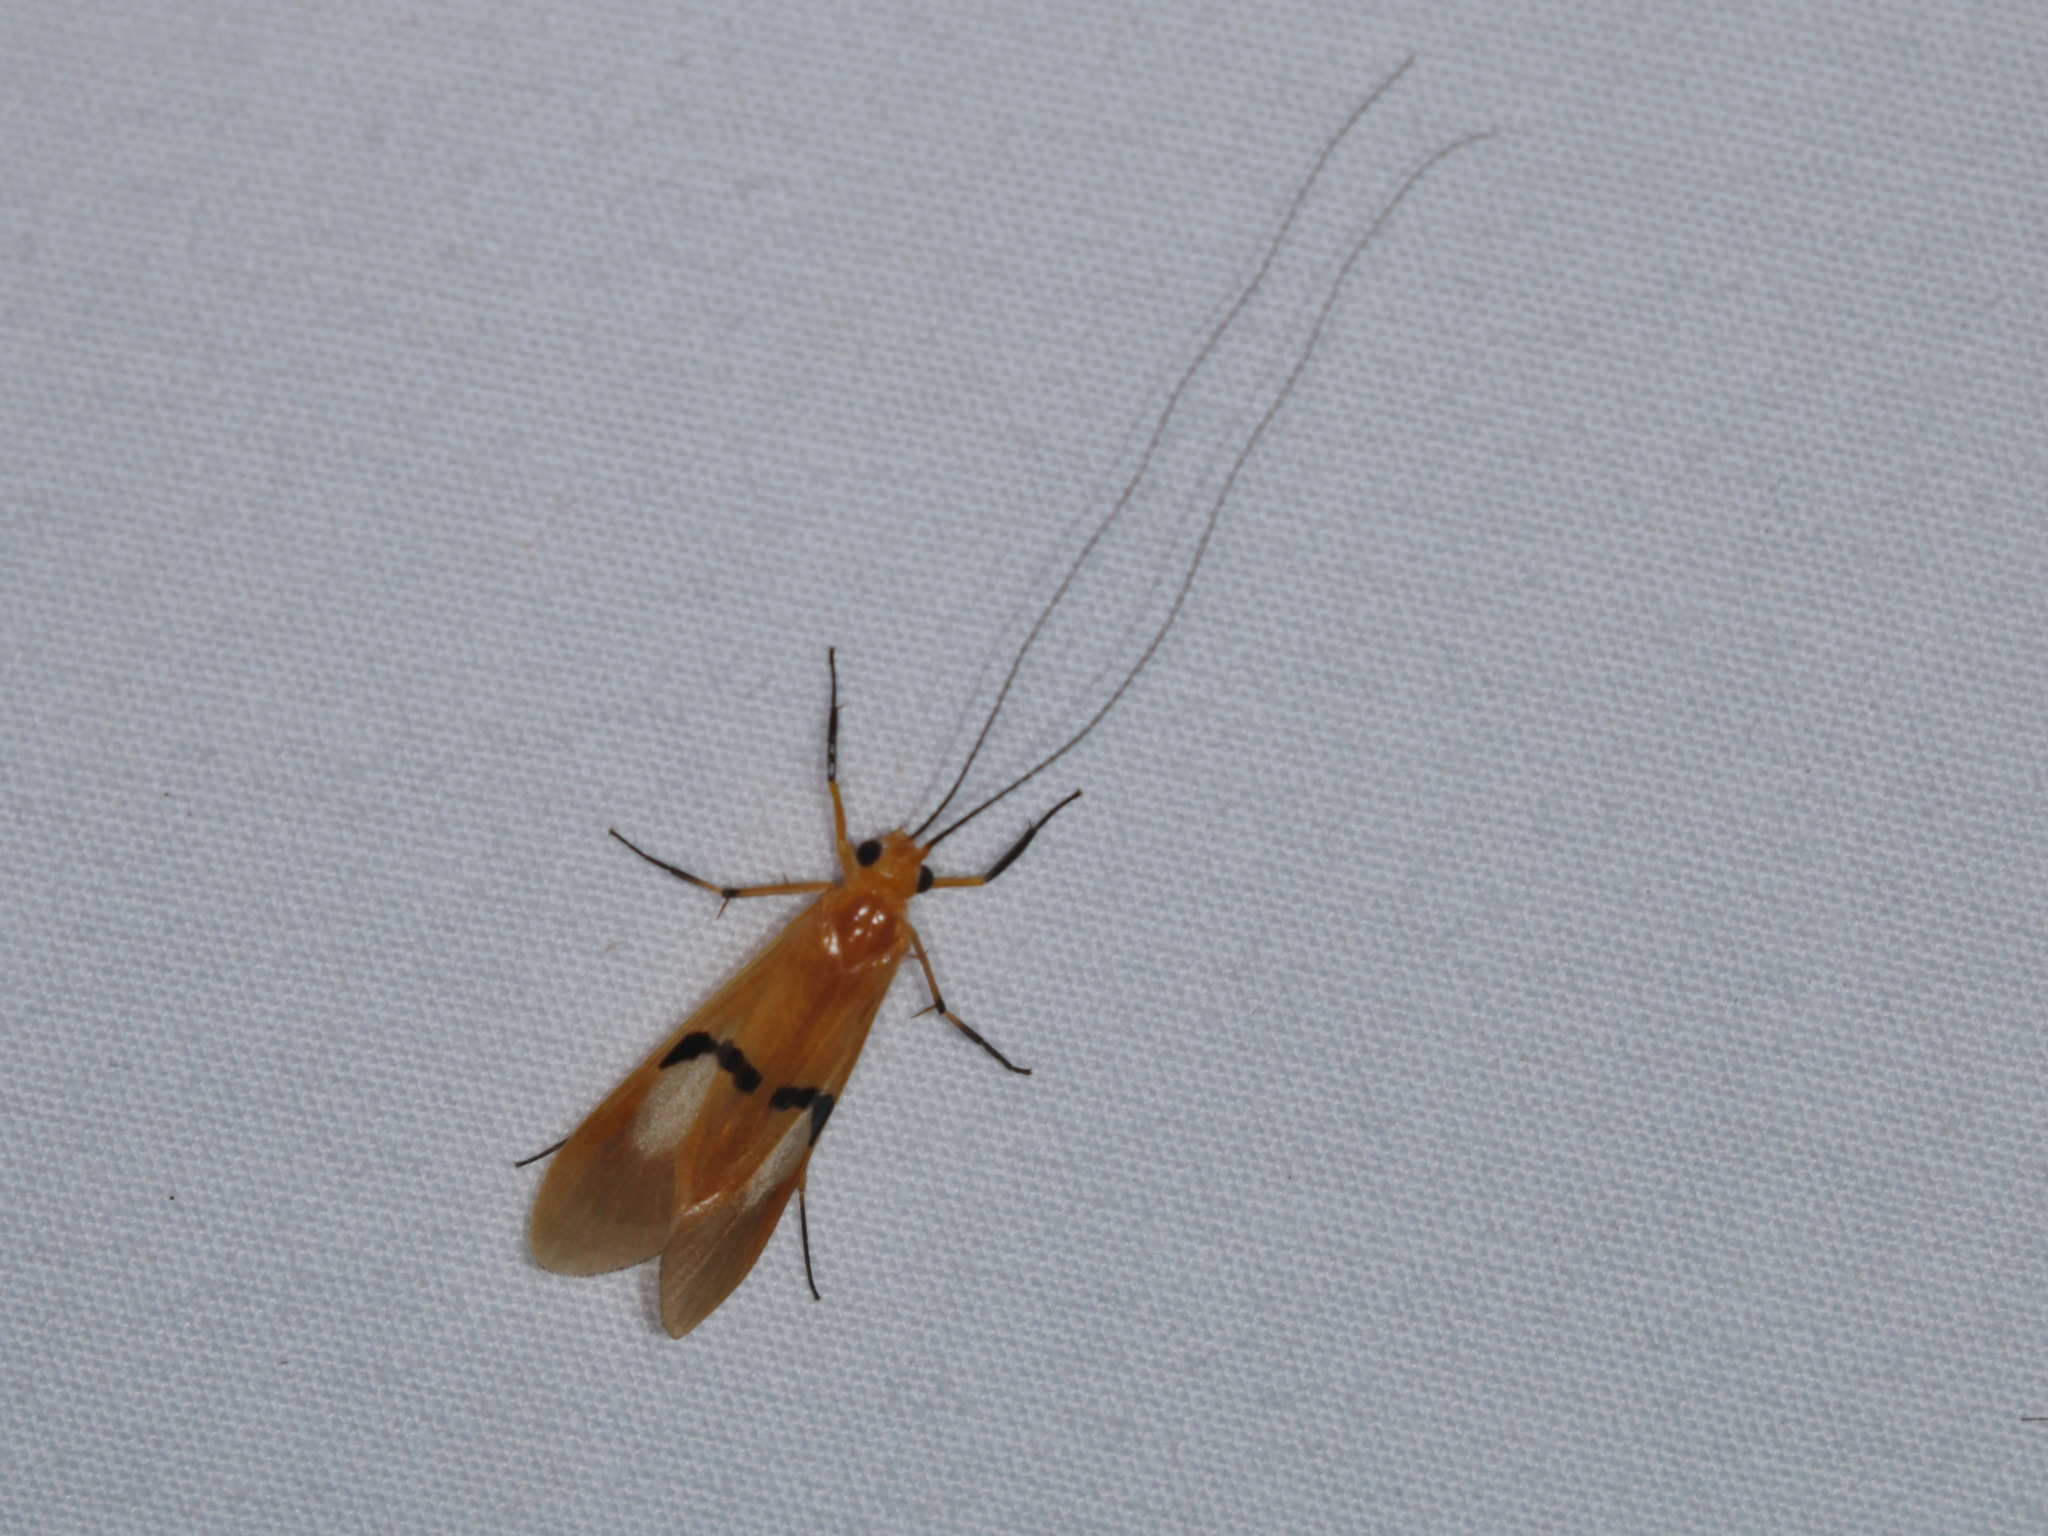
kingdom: Animalia
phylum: Arthropoda
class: Insecta
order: Trichoptera
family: Hydropsychidae
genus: Macrostemum
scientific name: Macrostemum midas
